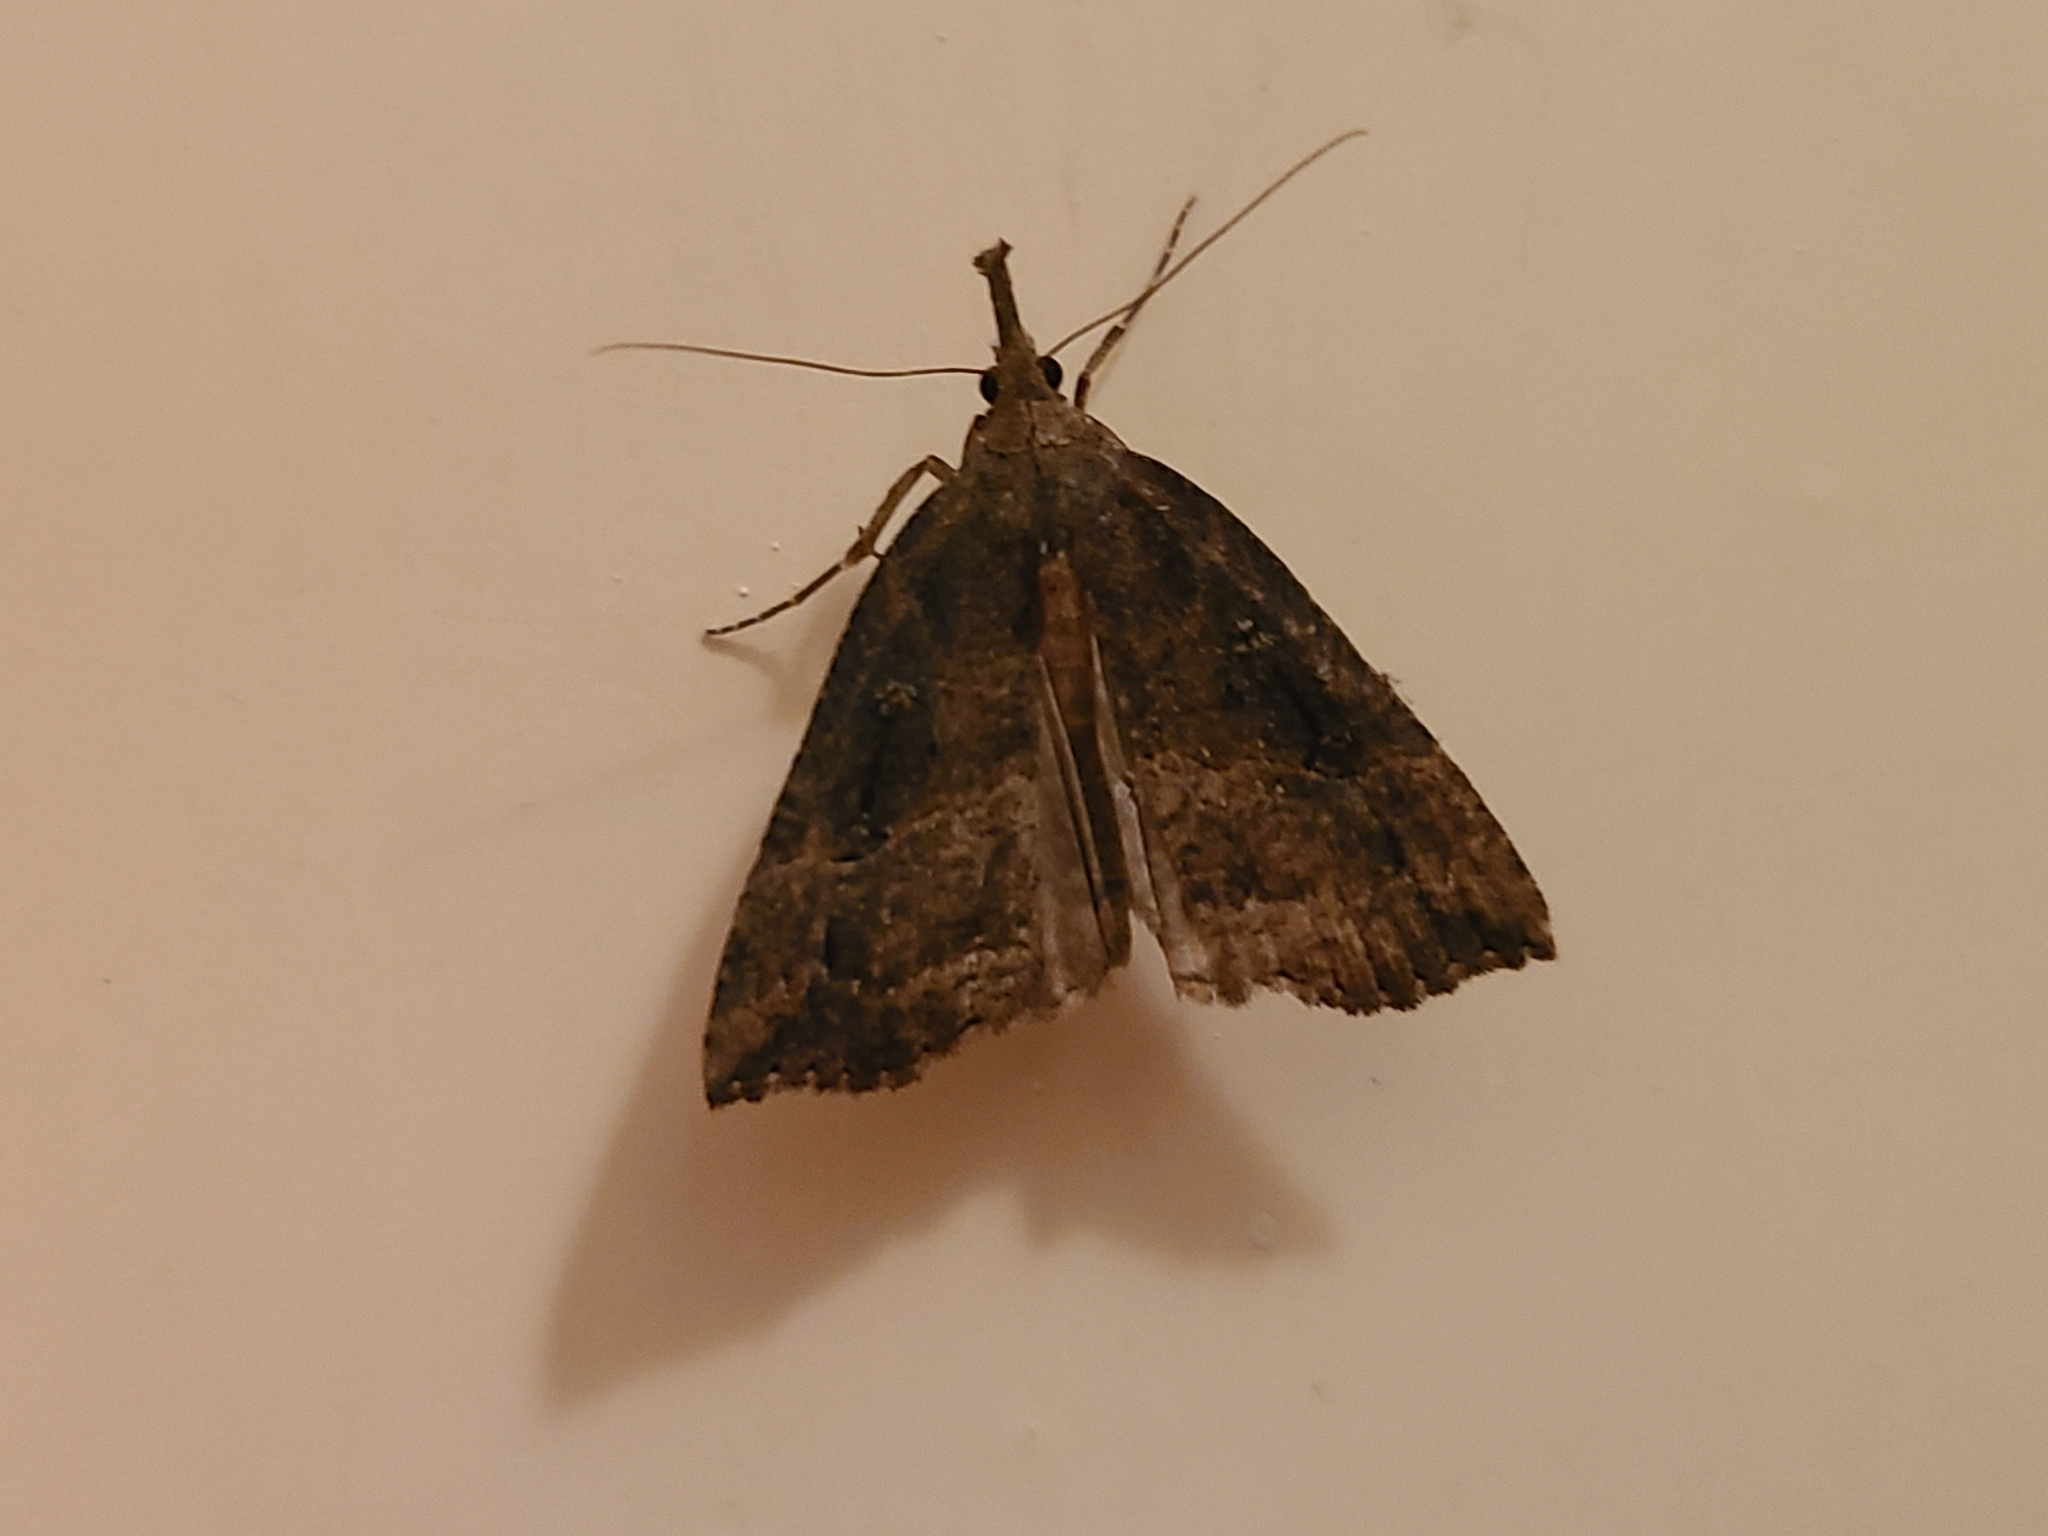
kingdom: Animalia
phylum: Arthropoda
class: Insecta
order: Lepidoptera
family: Erebidae
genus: Hypena
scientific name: Hypena rostralis
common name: Buttoned snout
